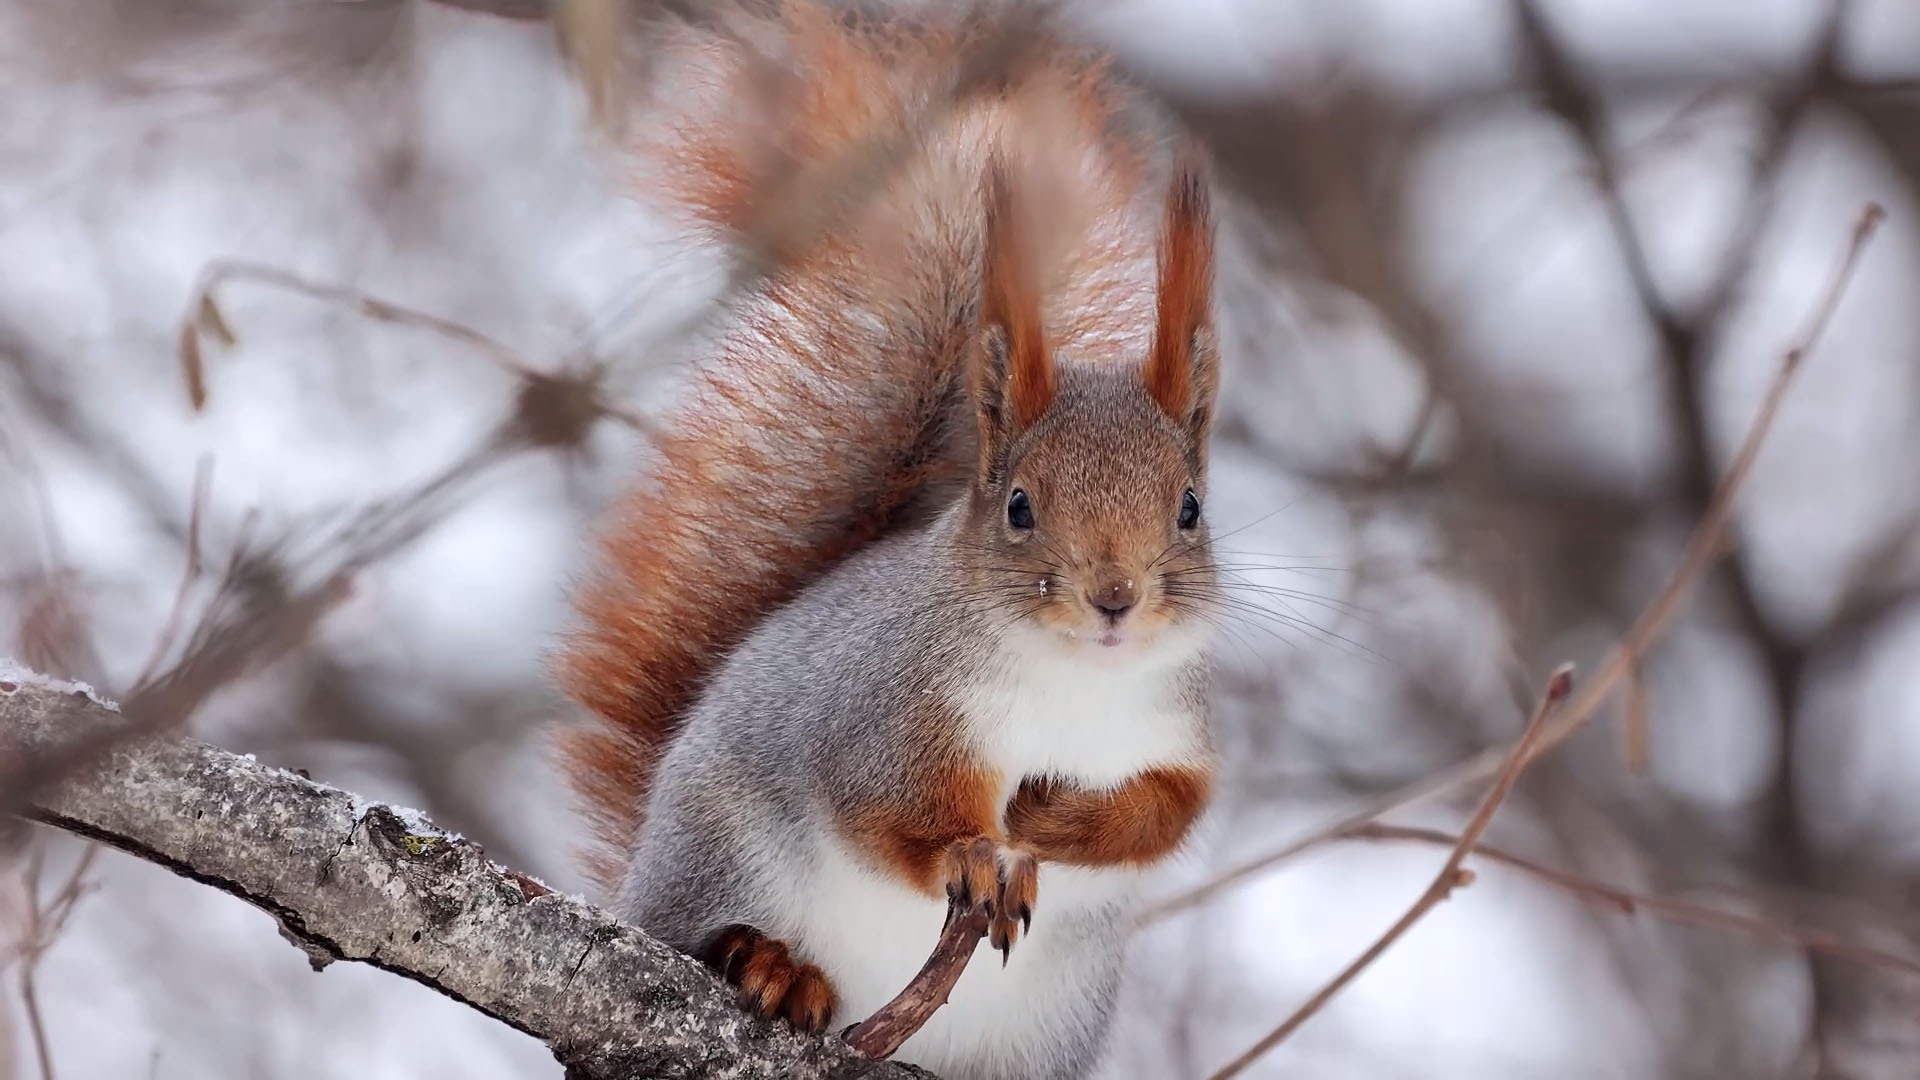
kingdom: Animalia
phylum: Chordata
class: Mammalia
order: Rodentia
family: Sciuridae
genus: Sciurus
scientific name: Sciurus vulgaris
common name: Eurasian red squirrel
